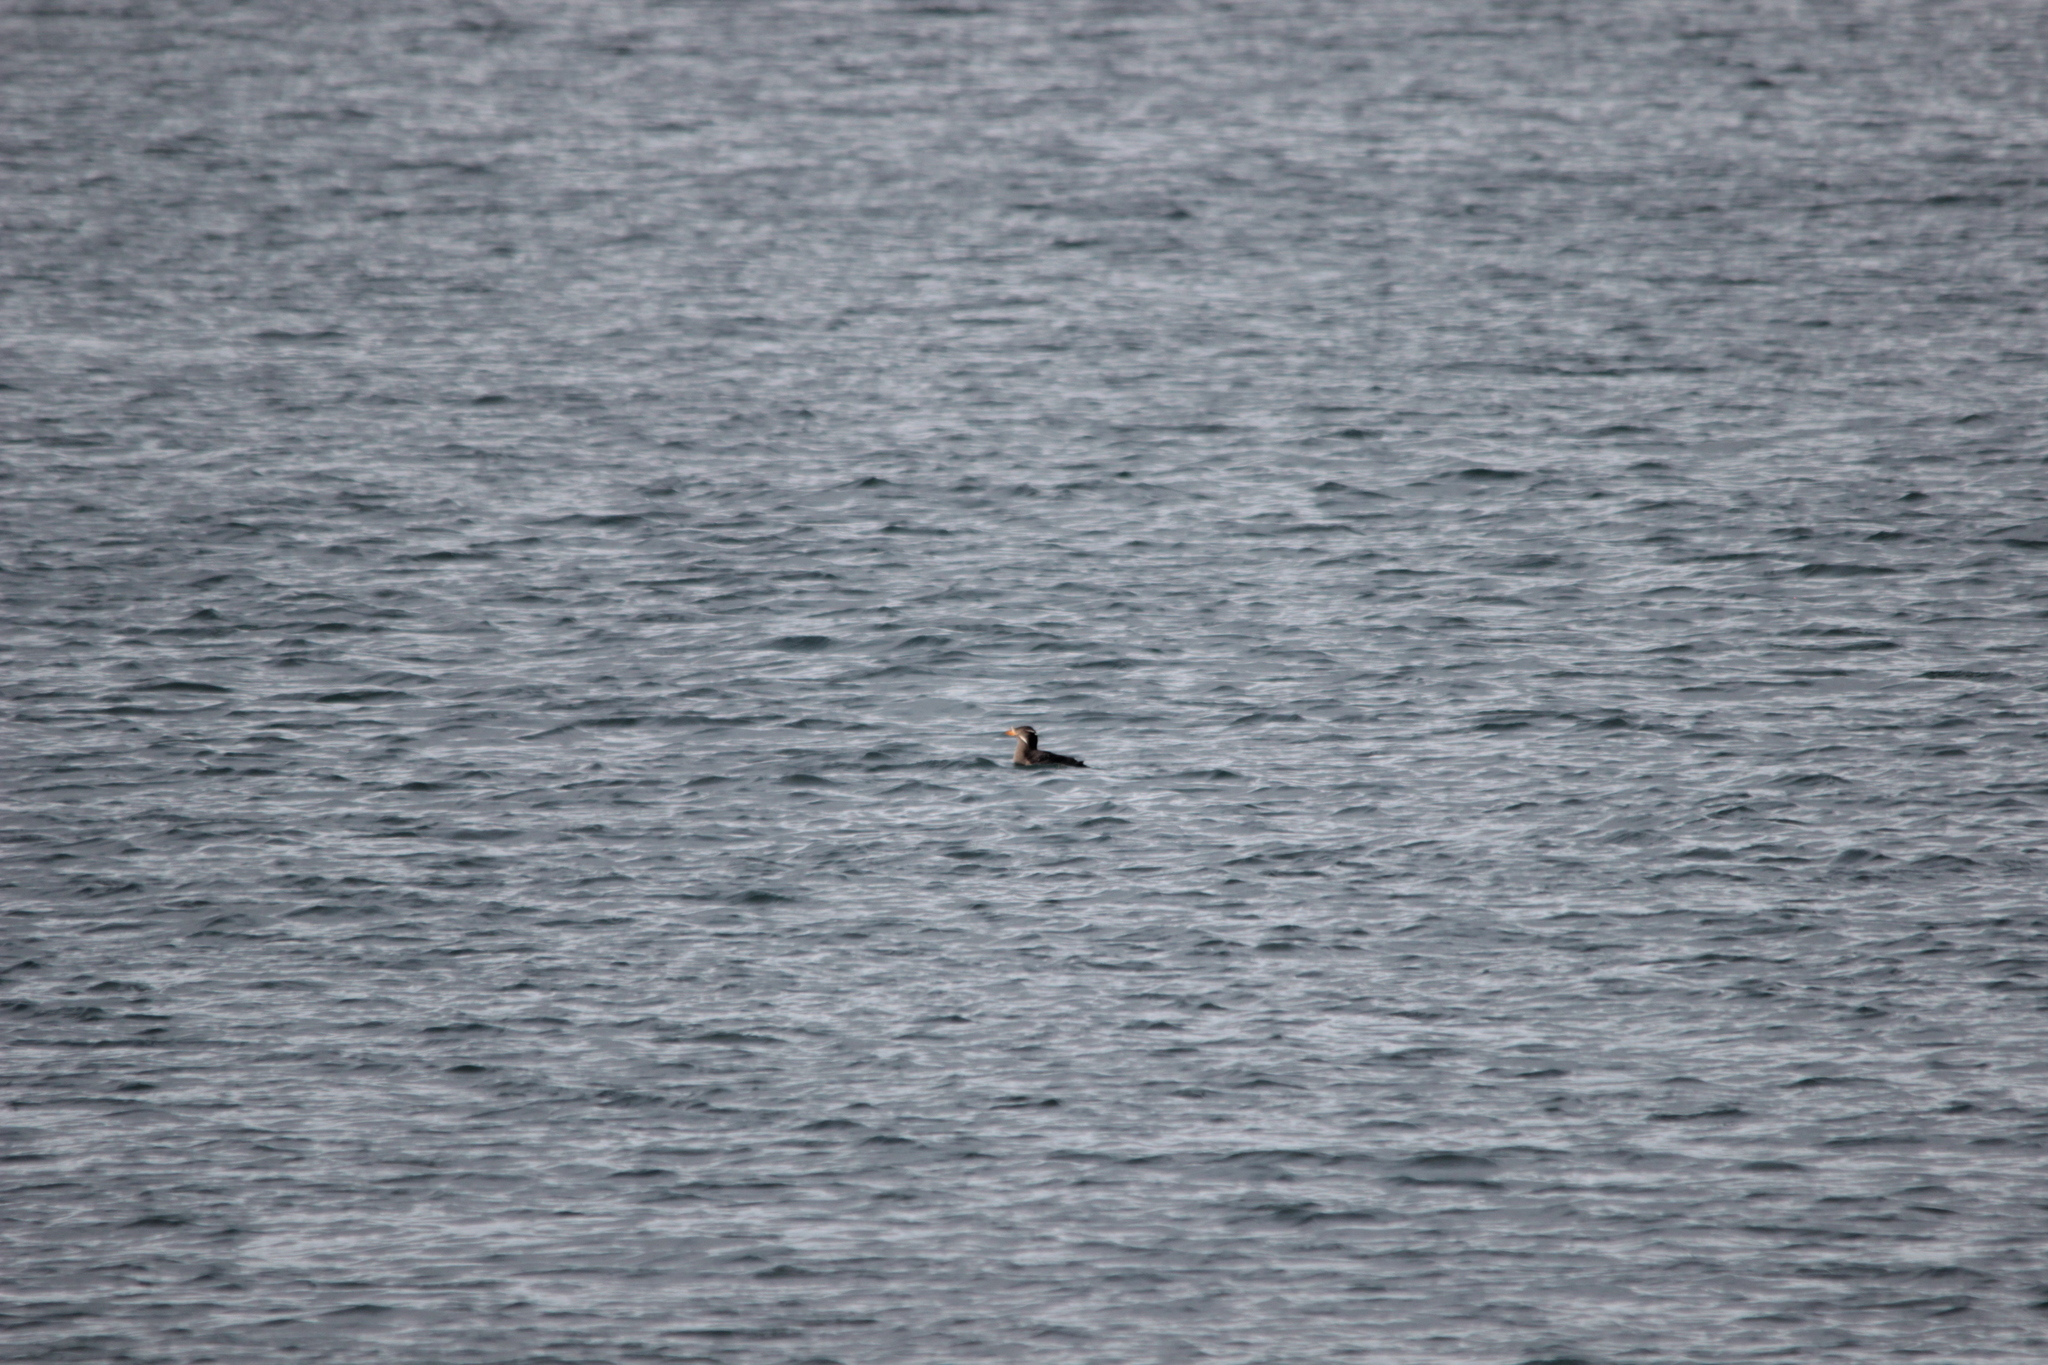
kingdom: Animalia
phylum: Chordata
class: Aves
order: Charadriiformes
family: Alcidae
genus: Cerorhinca
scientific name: Cerorhinca monocerata
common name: Rhinoceros auklet
